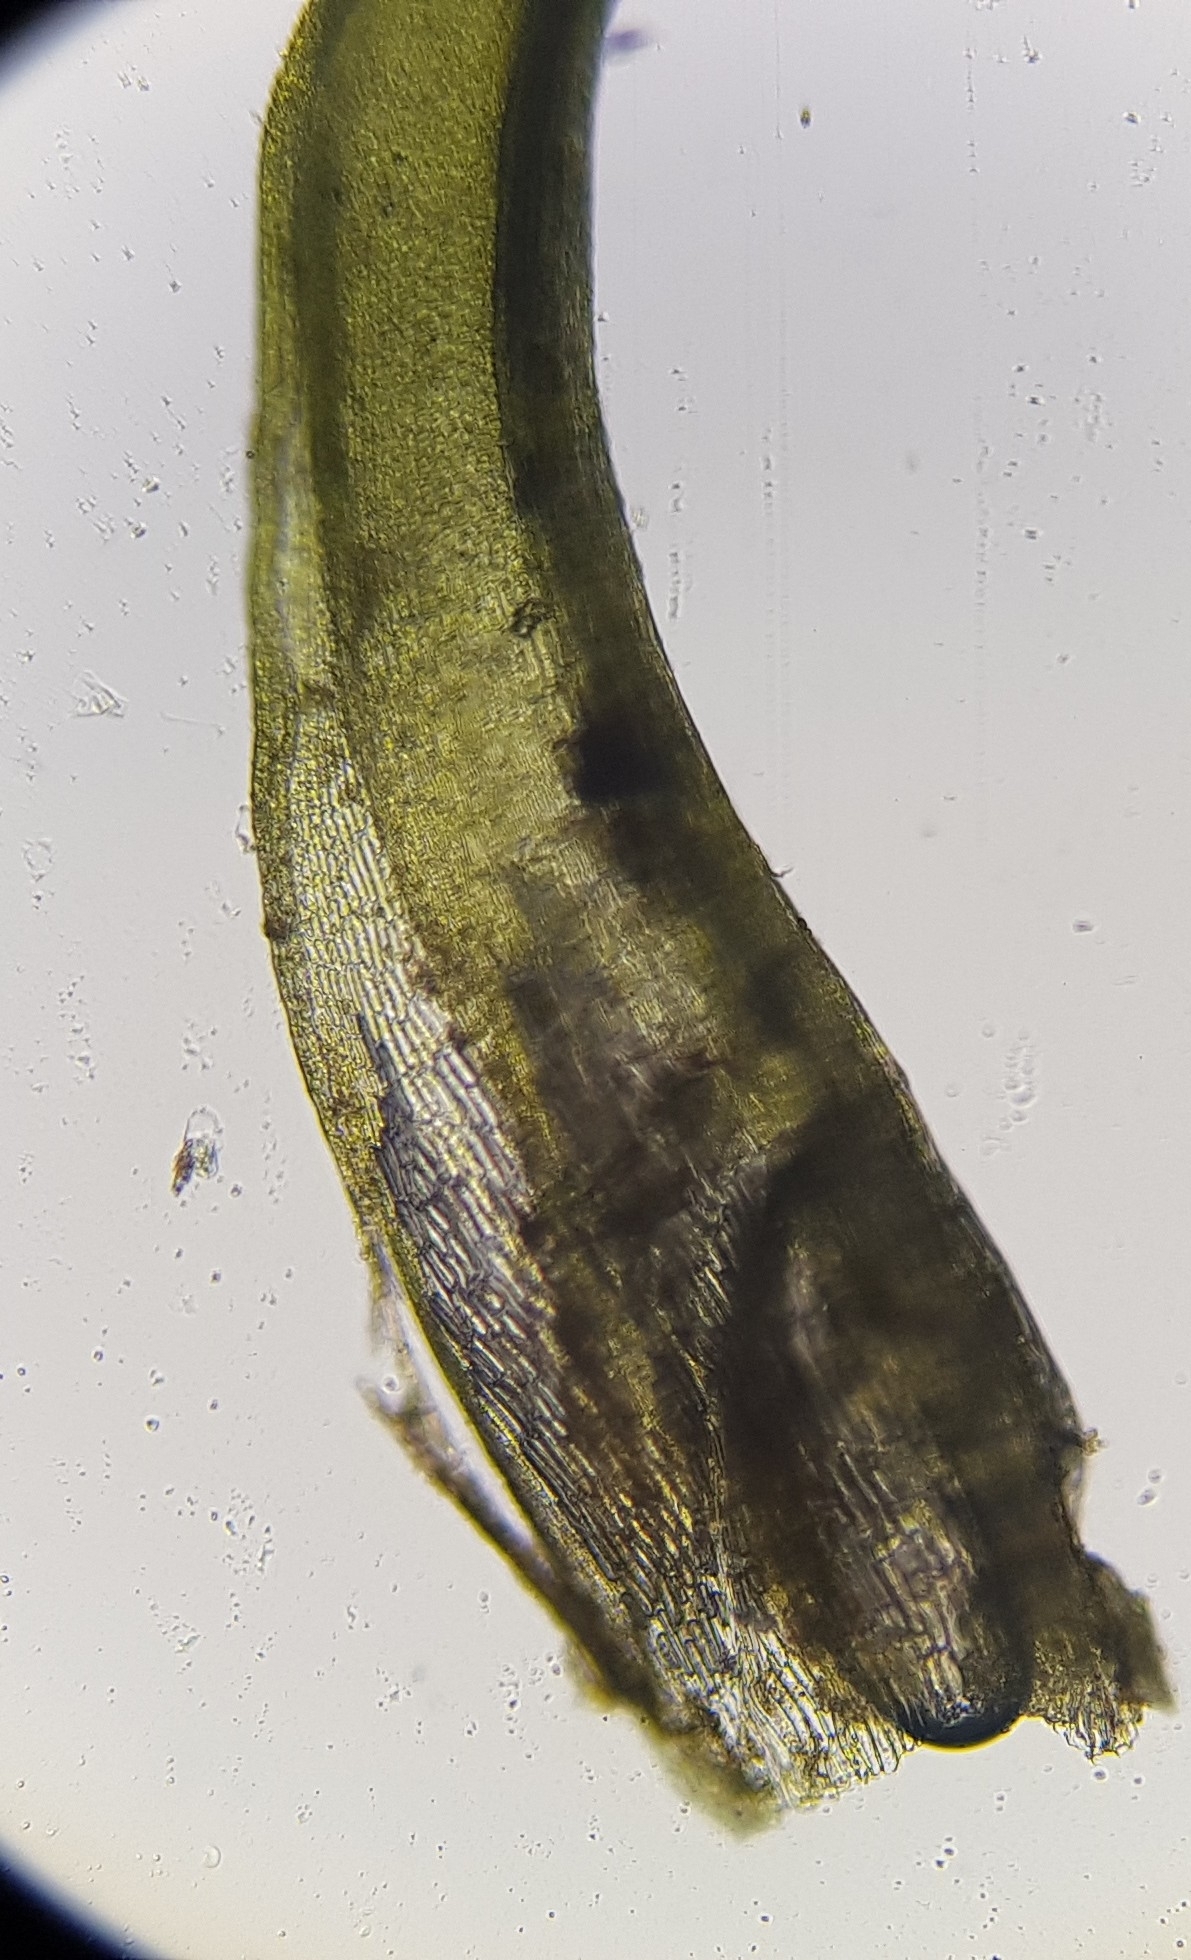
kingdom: Plantae
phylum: Bryophyta
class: Bryopsida
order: Pottiales
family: Pottiaceae
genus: Bryoerythrophyllum
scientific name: Bryoerythrophyllum recurvirostrum
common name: Red beard moss
